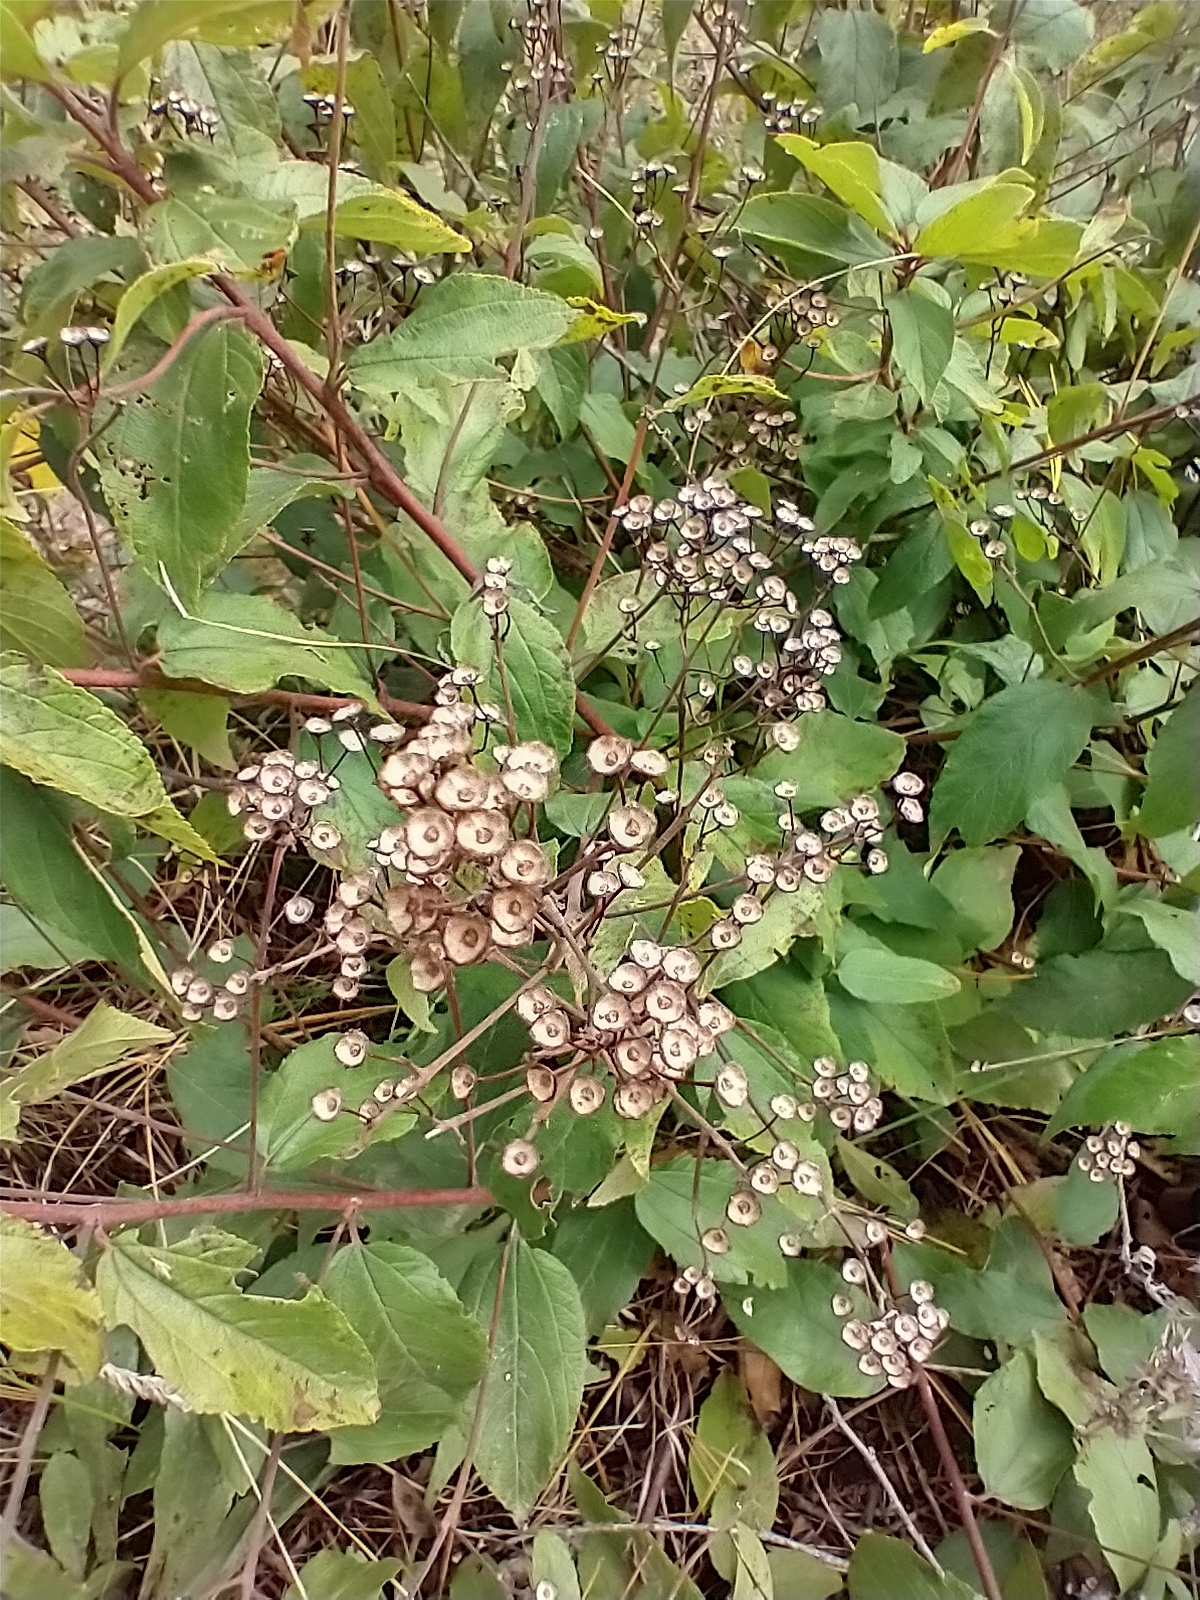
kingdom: Plantae
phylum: Tracheophyta
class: Magnoliopsida
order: Rosales
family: Rhamnaceae
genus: Ceanothus
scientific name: Ceanothus americanus
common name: Redroot
